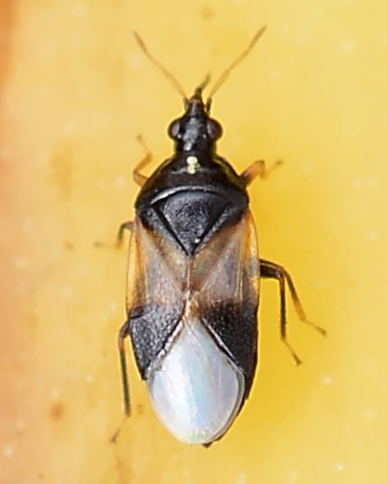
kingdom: Animalia
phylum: Arthropoda
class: Insecta
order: Hemiptera
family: Anthocoridae
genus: Orius
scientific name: Orius insidiosus
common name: Insidious flower bug
